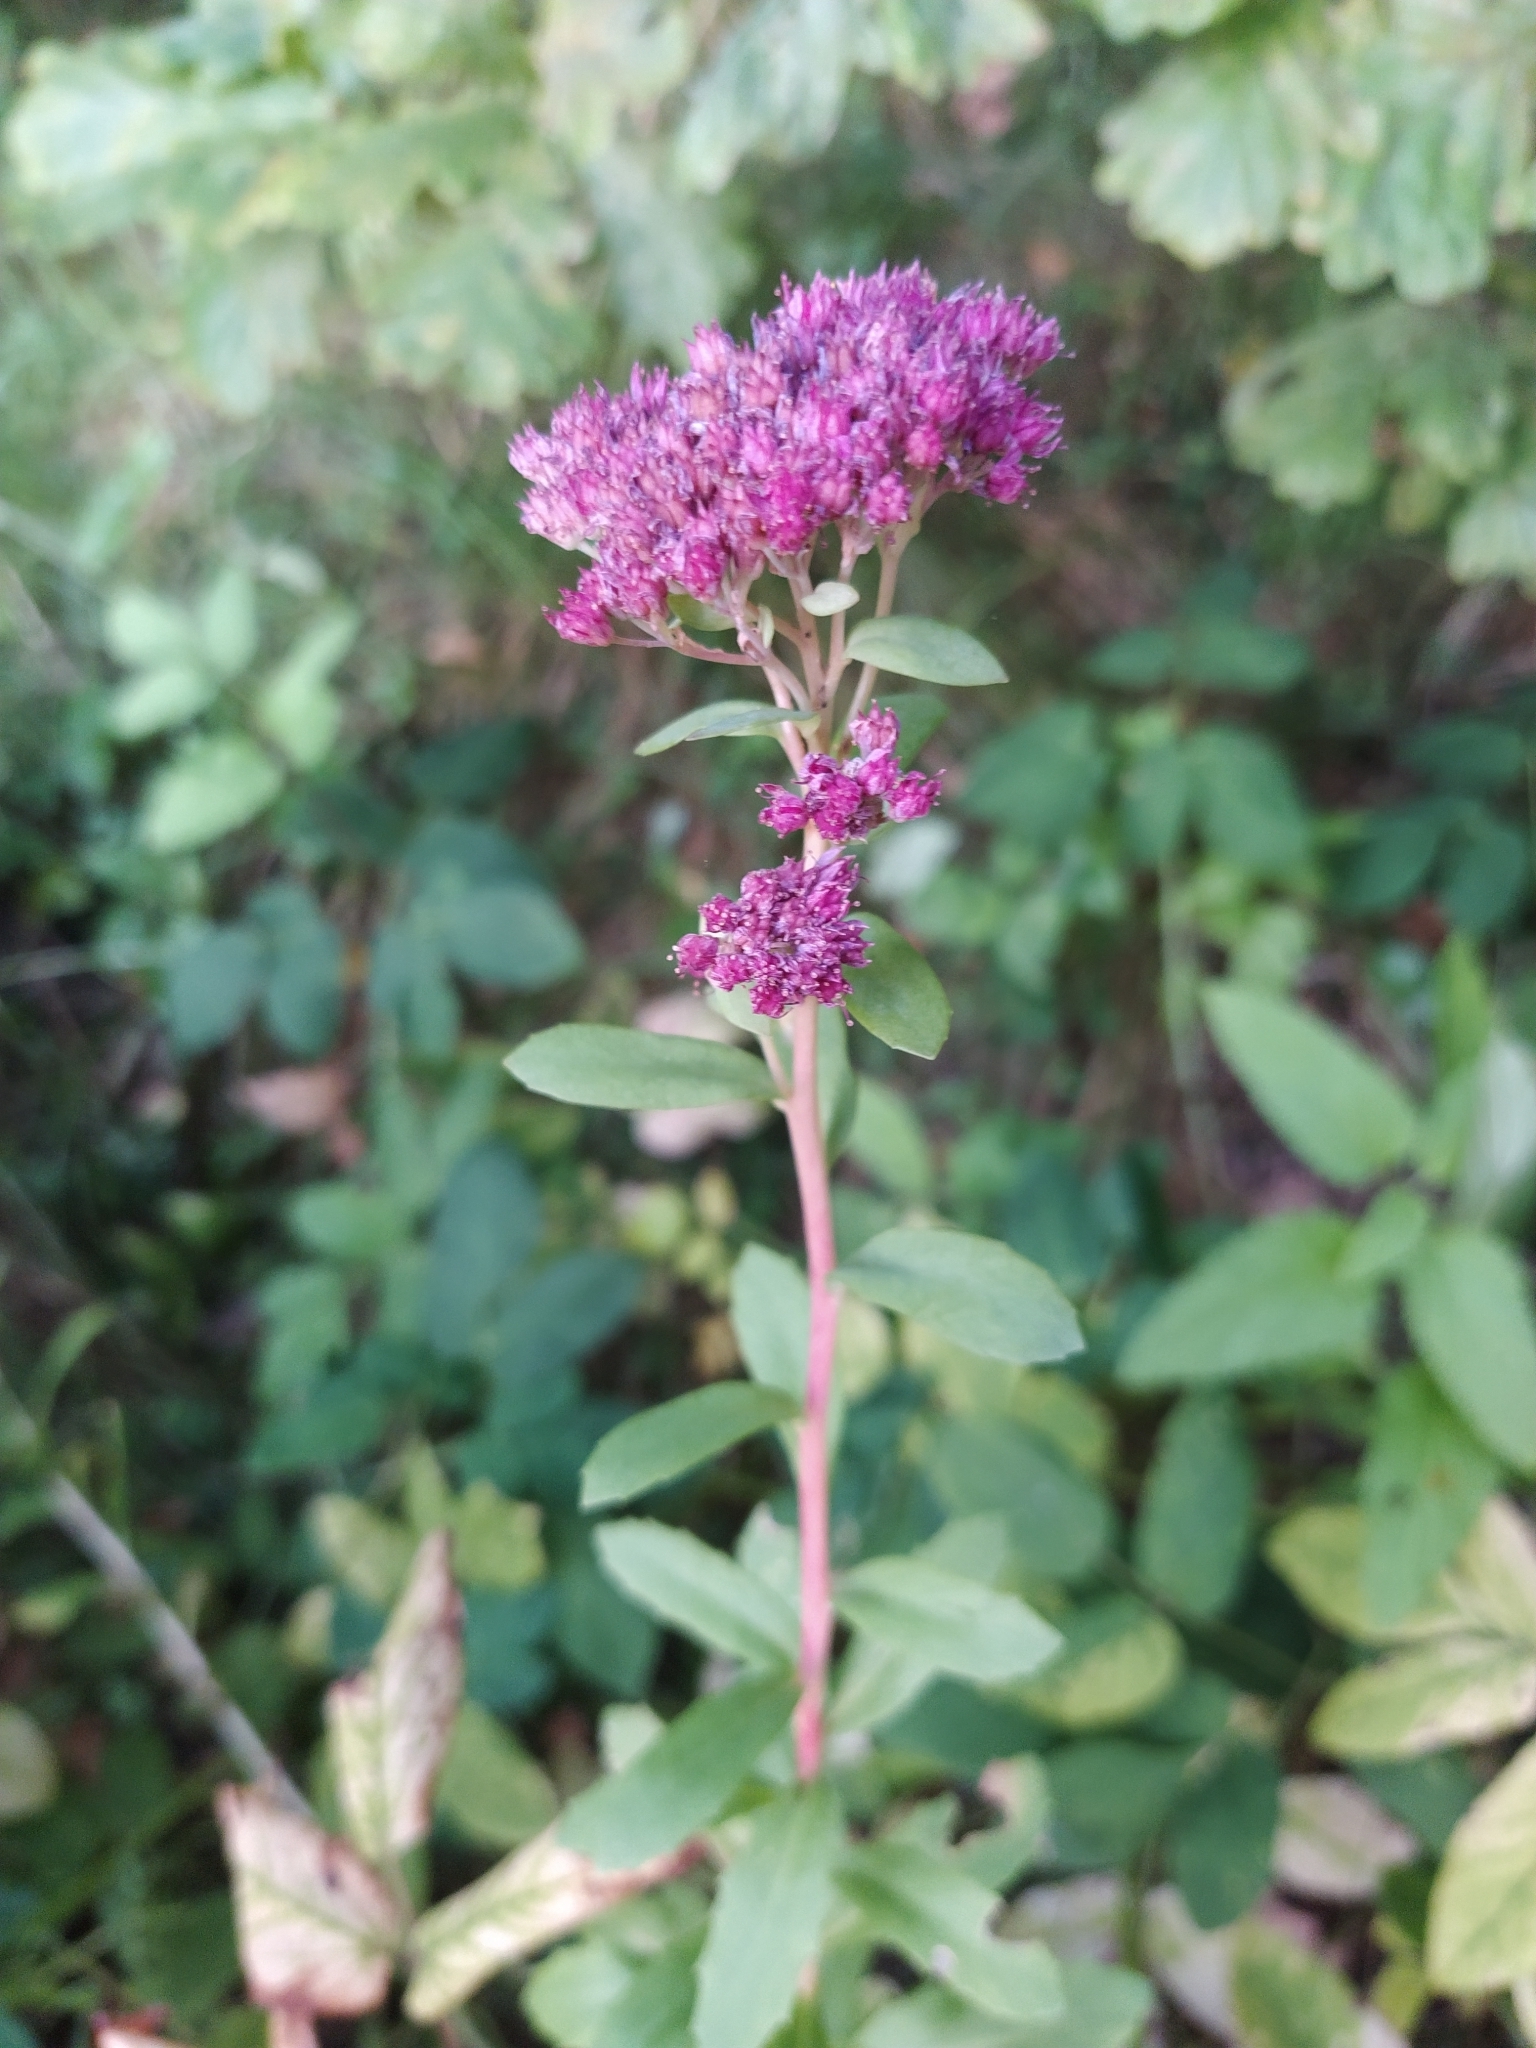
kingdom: Plantae
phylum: Tracheophyta
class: Magnoliopsida
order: Saxifragales
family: Crassulaceae
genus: Hylotelephium
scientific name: Hylotelephium telephium
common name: Live-forever
